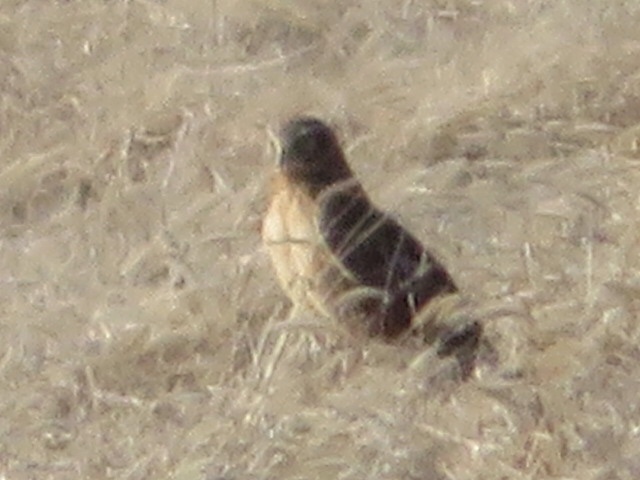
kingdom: Animalia
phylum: Chordata
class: Aves
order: Accipitriformes
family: Accipitridae
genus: Circus
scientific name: Circus cyaneus
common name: Hen harrier
